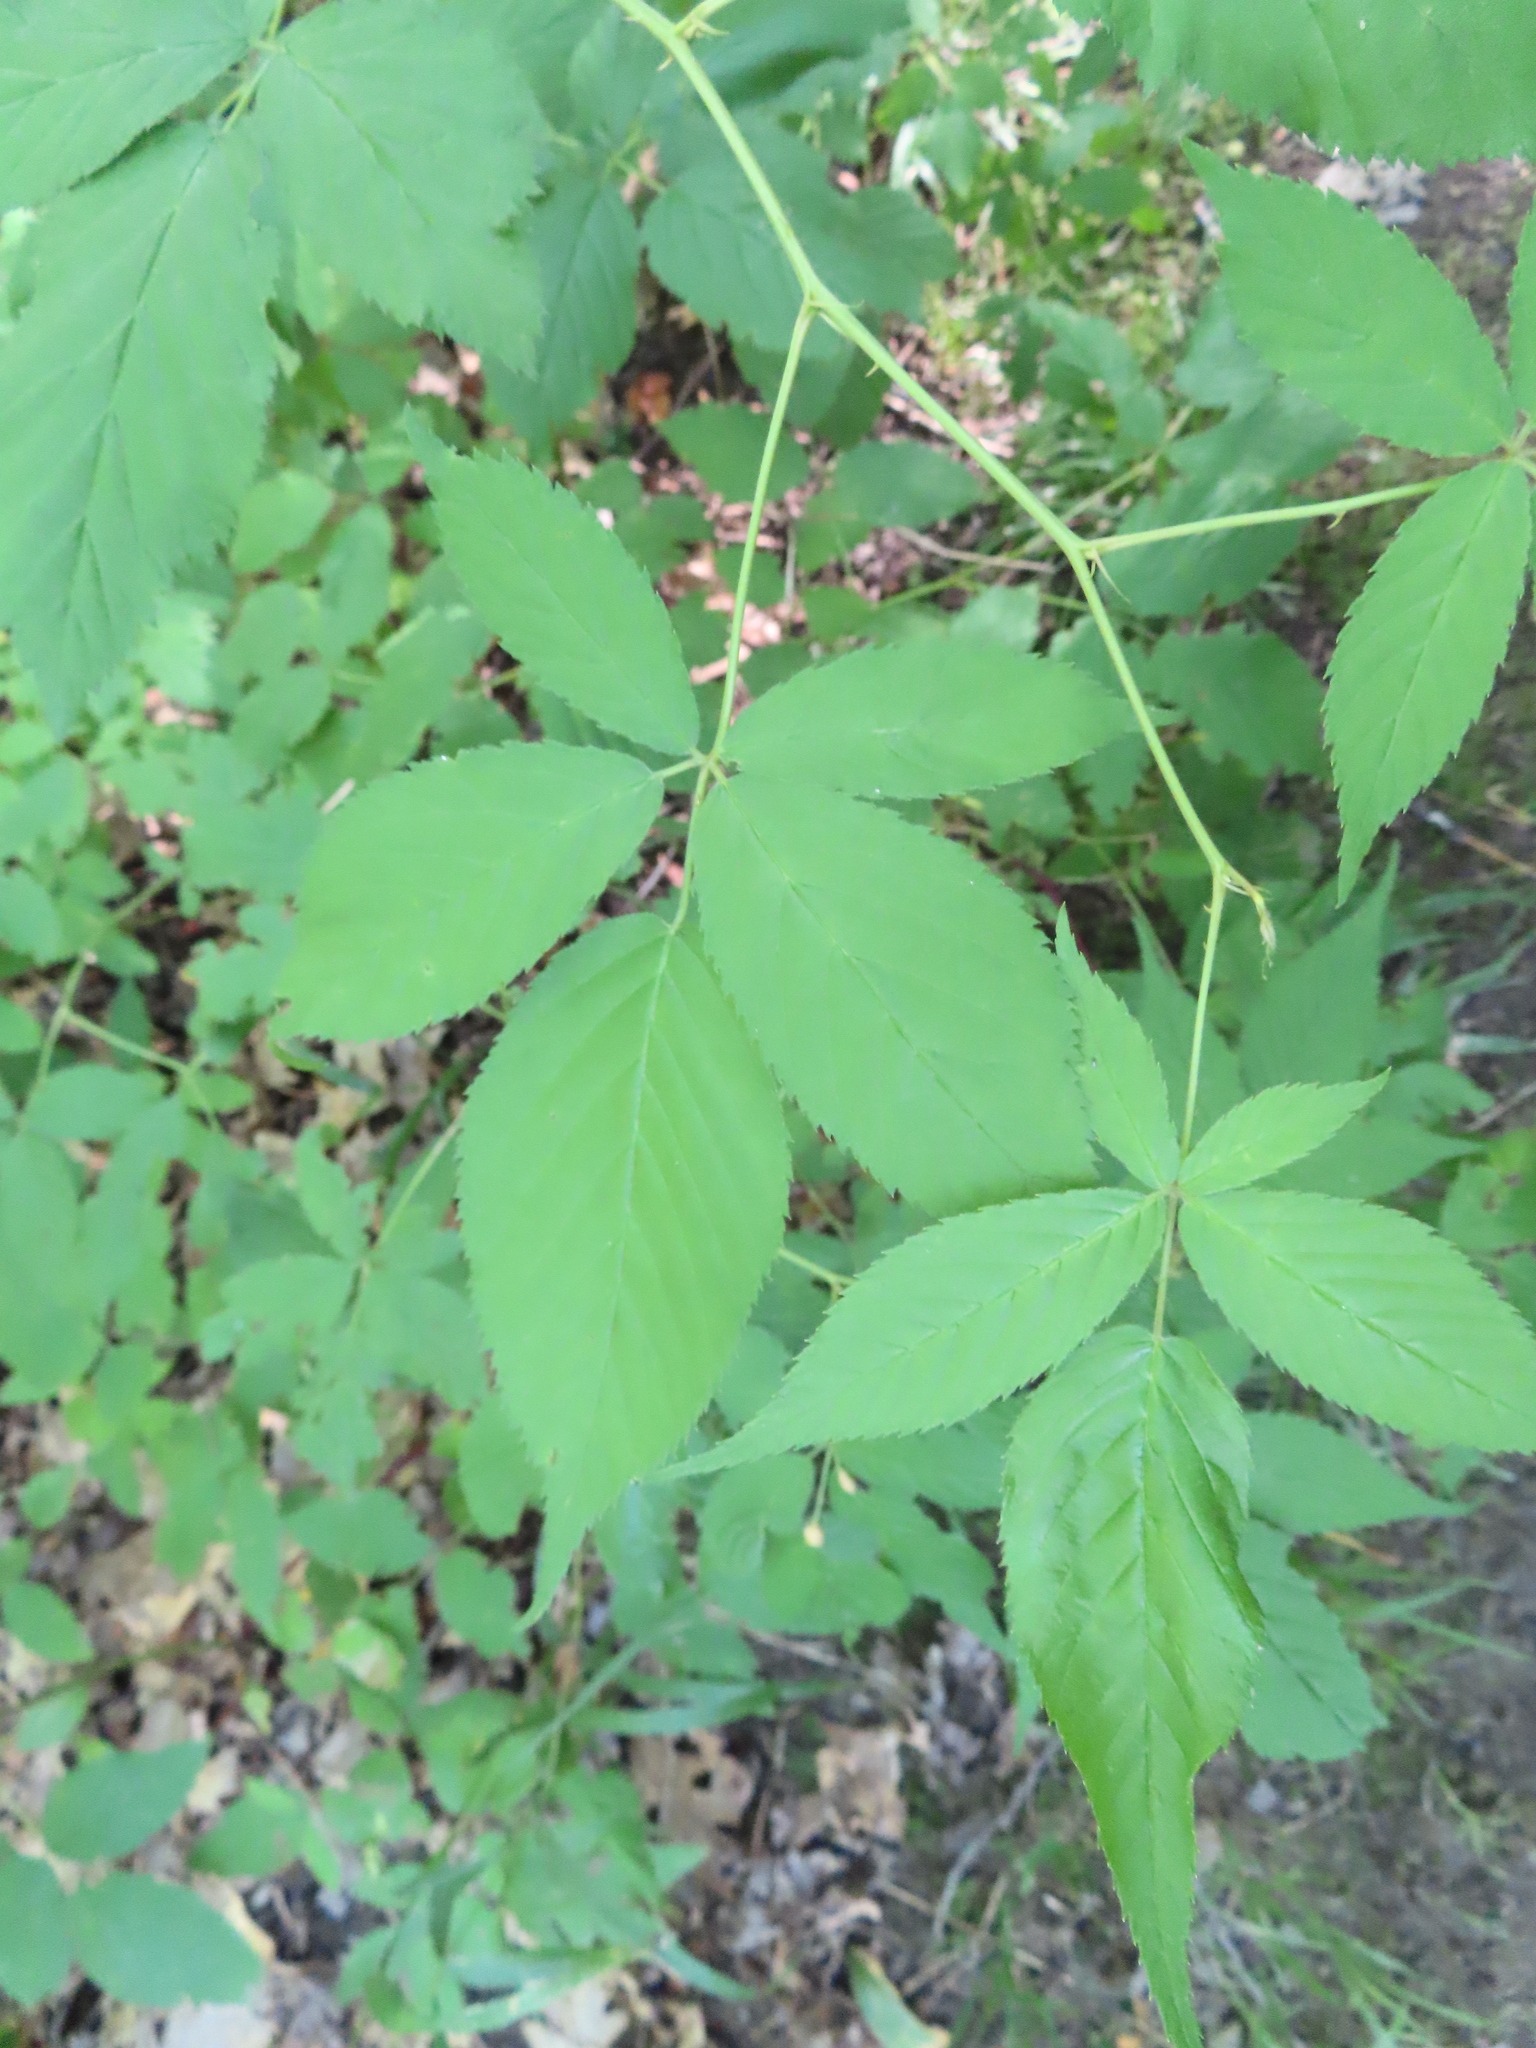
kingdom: Plantae
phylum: Tracheophyta
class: Magnoliopsida
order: Rosales
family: Rosaceae
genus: Rubus
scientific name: Rubus allegheniensis
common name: Allegheny blackberry
